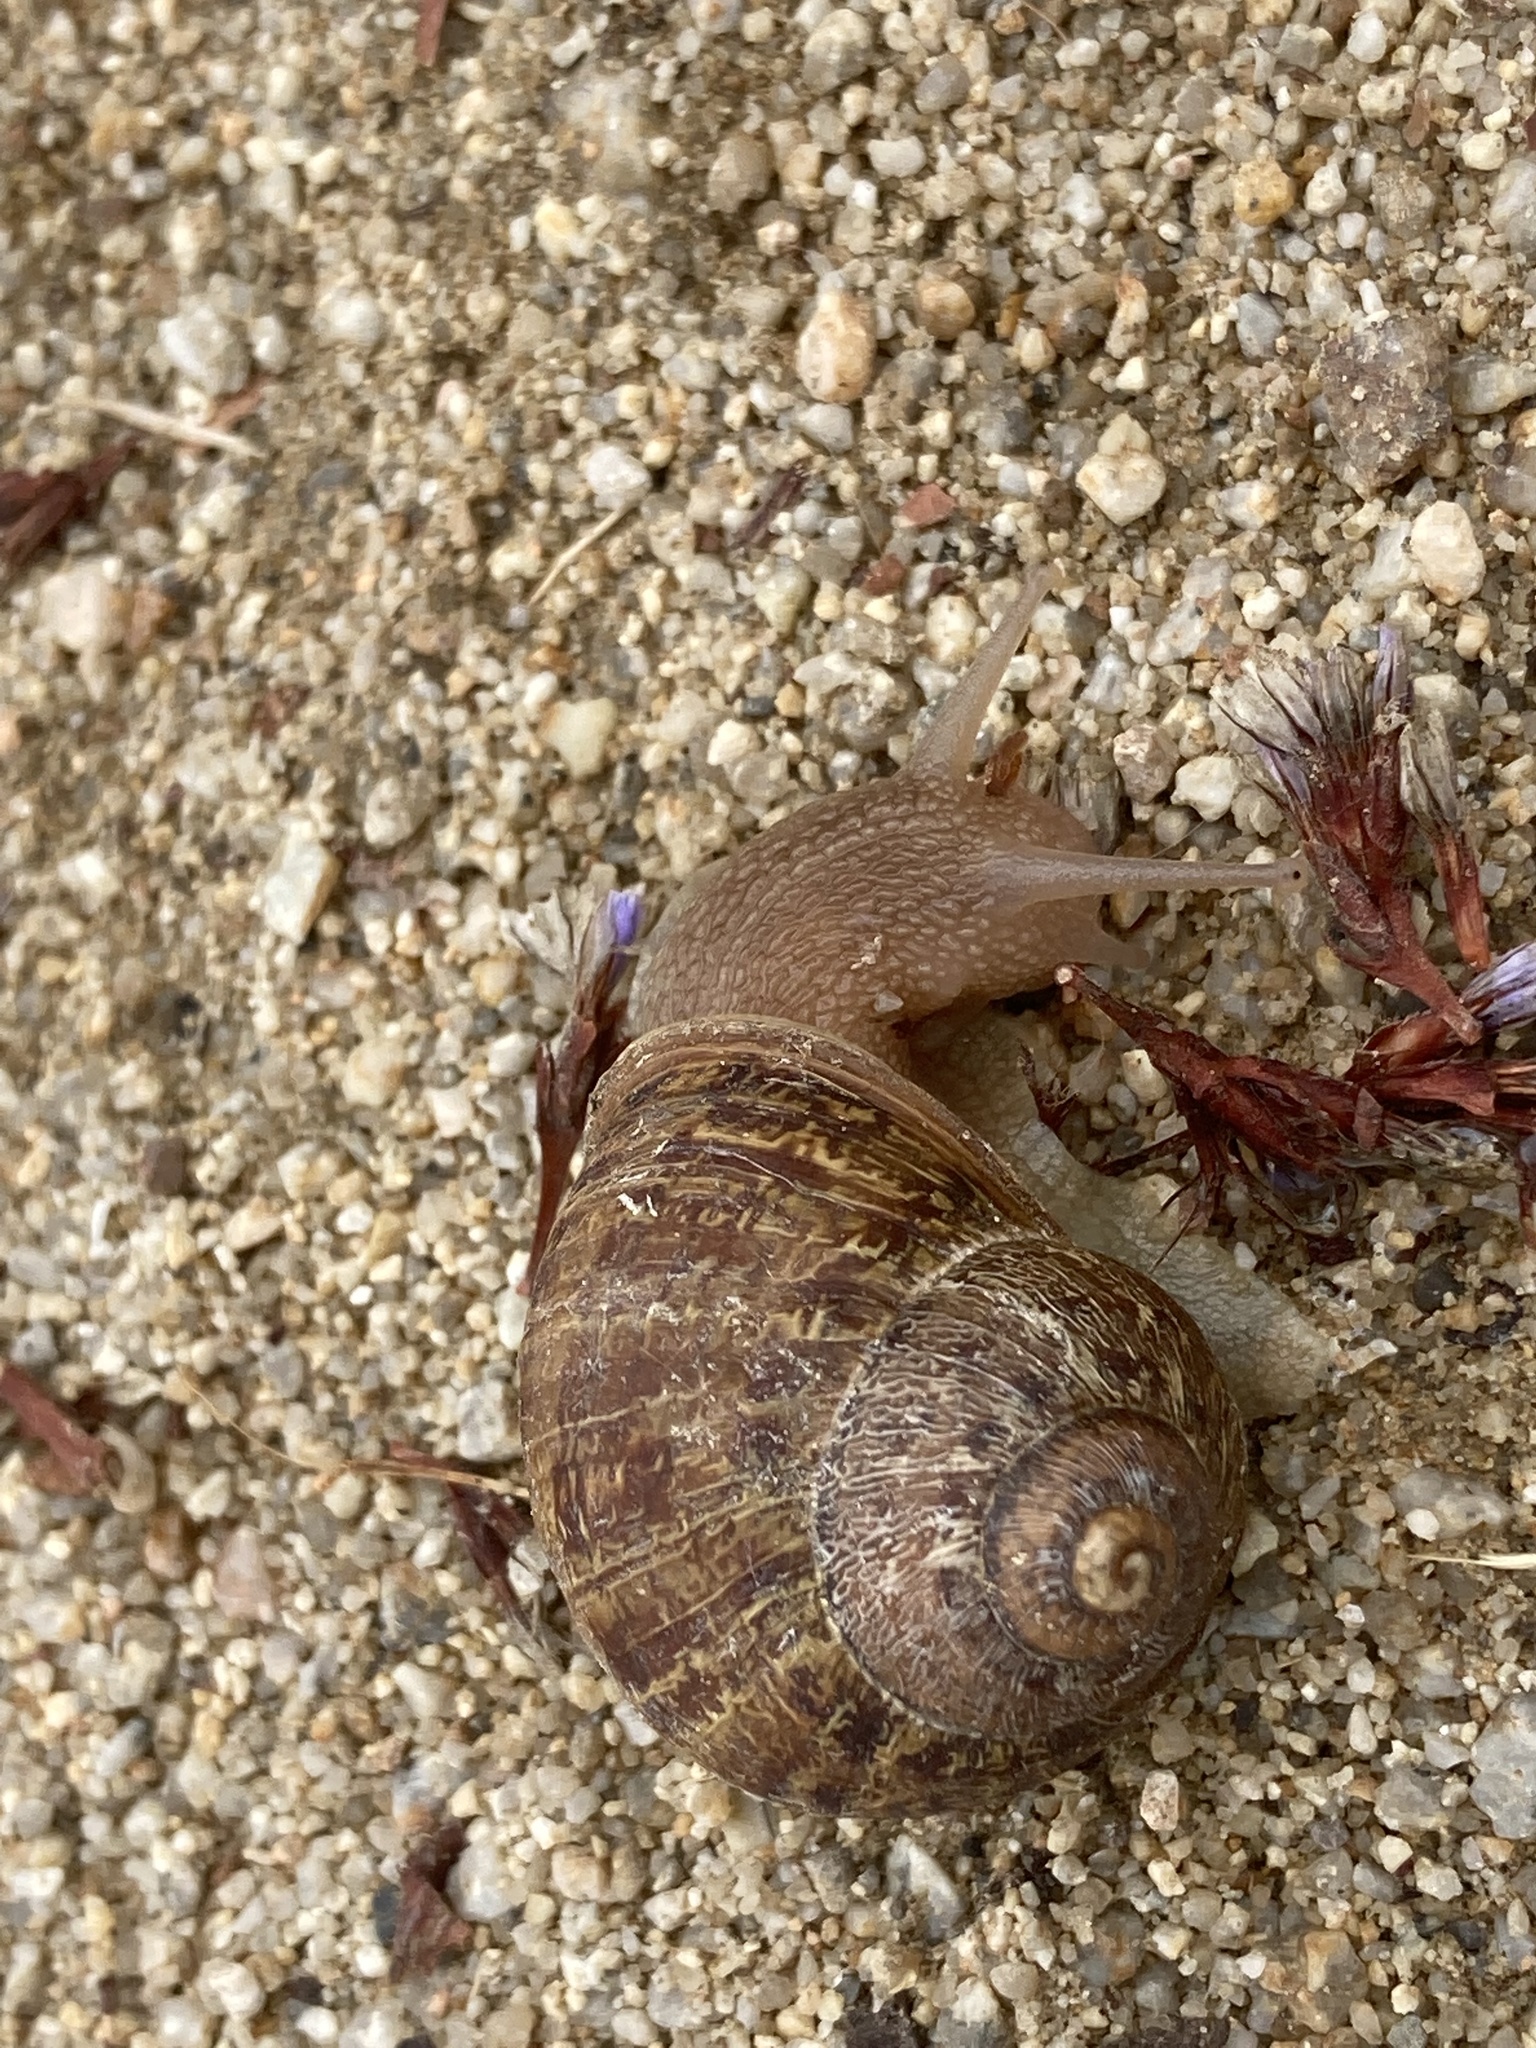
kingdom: Animalia
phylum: Mollusca
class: Gastropoda
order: Stylommatophora
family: Helicidae
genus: Cornu
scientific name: Cornu aspersum
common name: Brown garden snail
